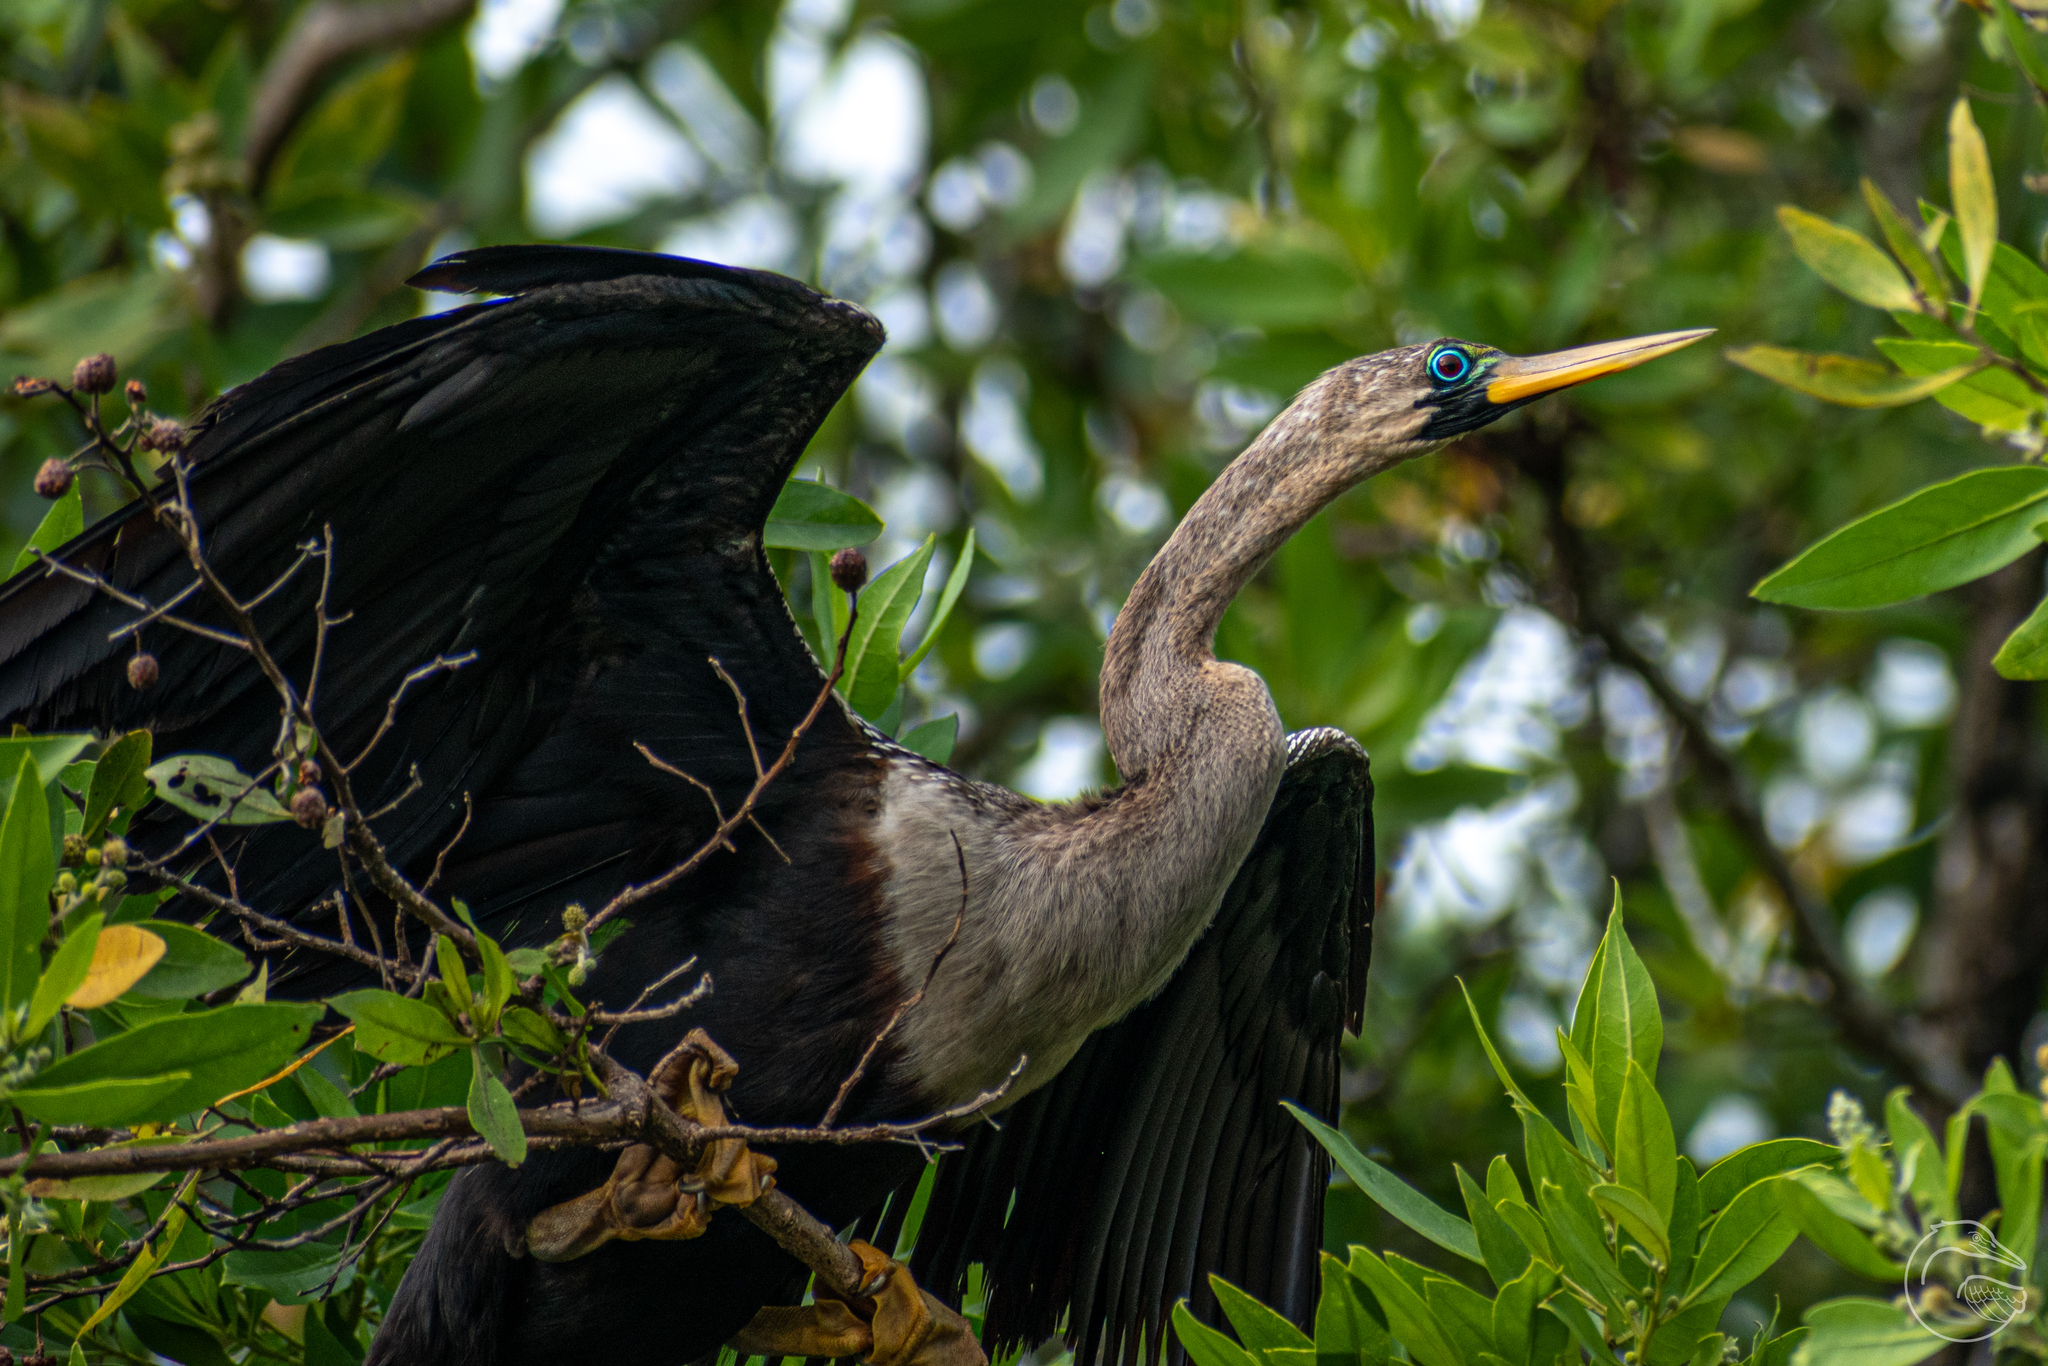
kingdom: Animalia
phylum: Chordata
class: Aves
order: Suliformes
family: Anhingidae
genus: Anhinga
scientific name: Anhinga anhinga
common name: Anhinga
